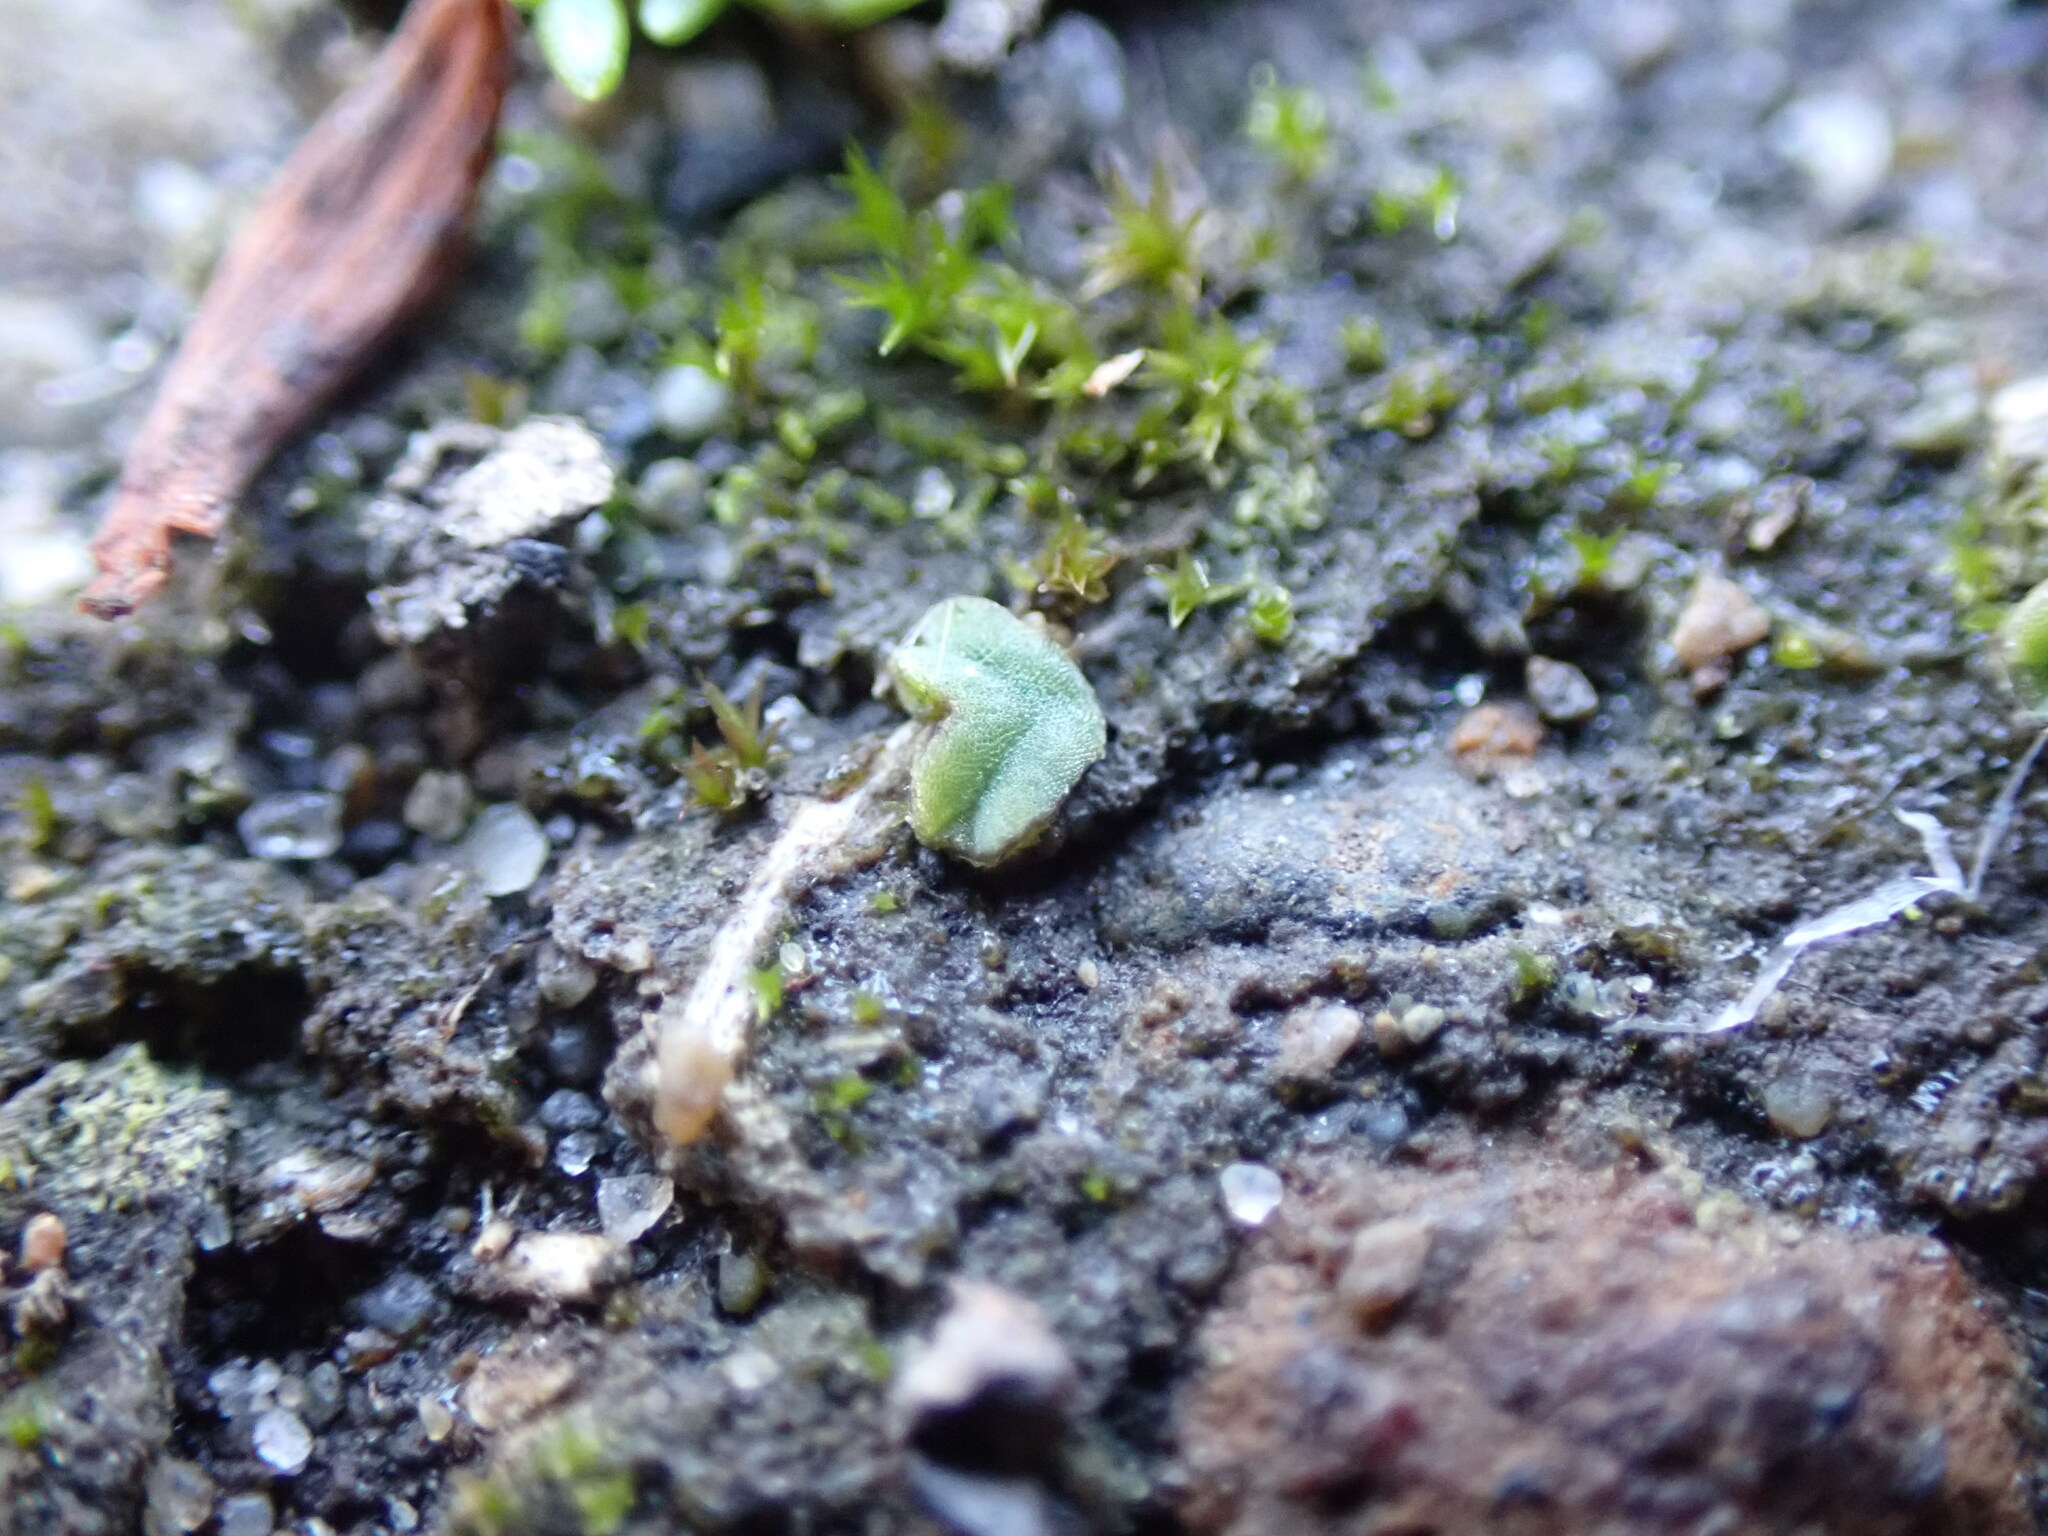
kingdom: Plantae
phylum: Marchantiophyta
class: Marchantiopsida
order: Marchantiales
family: Ricciaceae
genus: Riccia
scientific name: Riccia sorocarpa
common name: Common crystalwort
